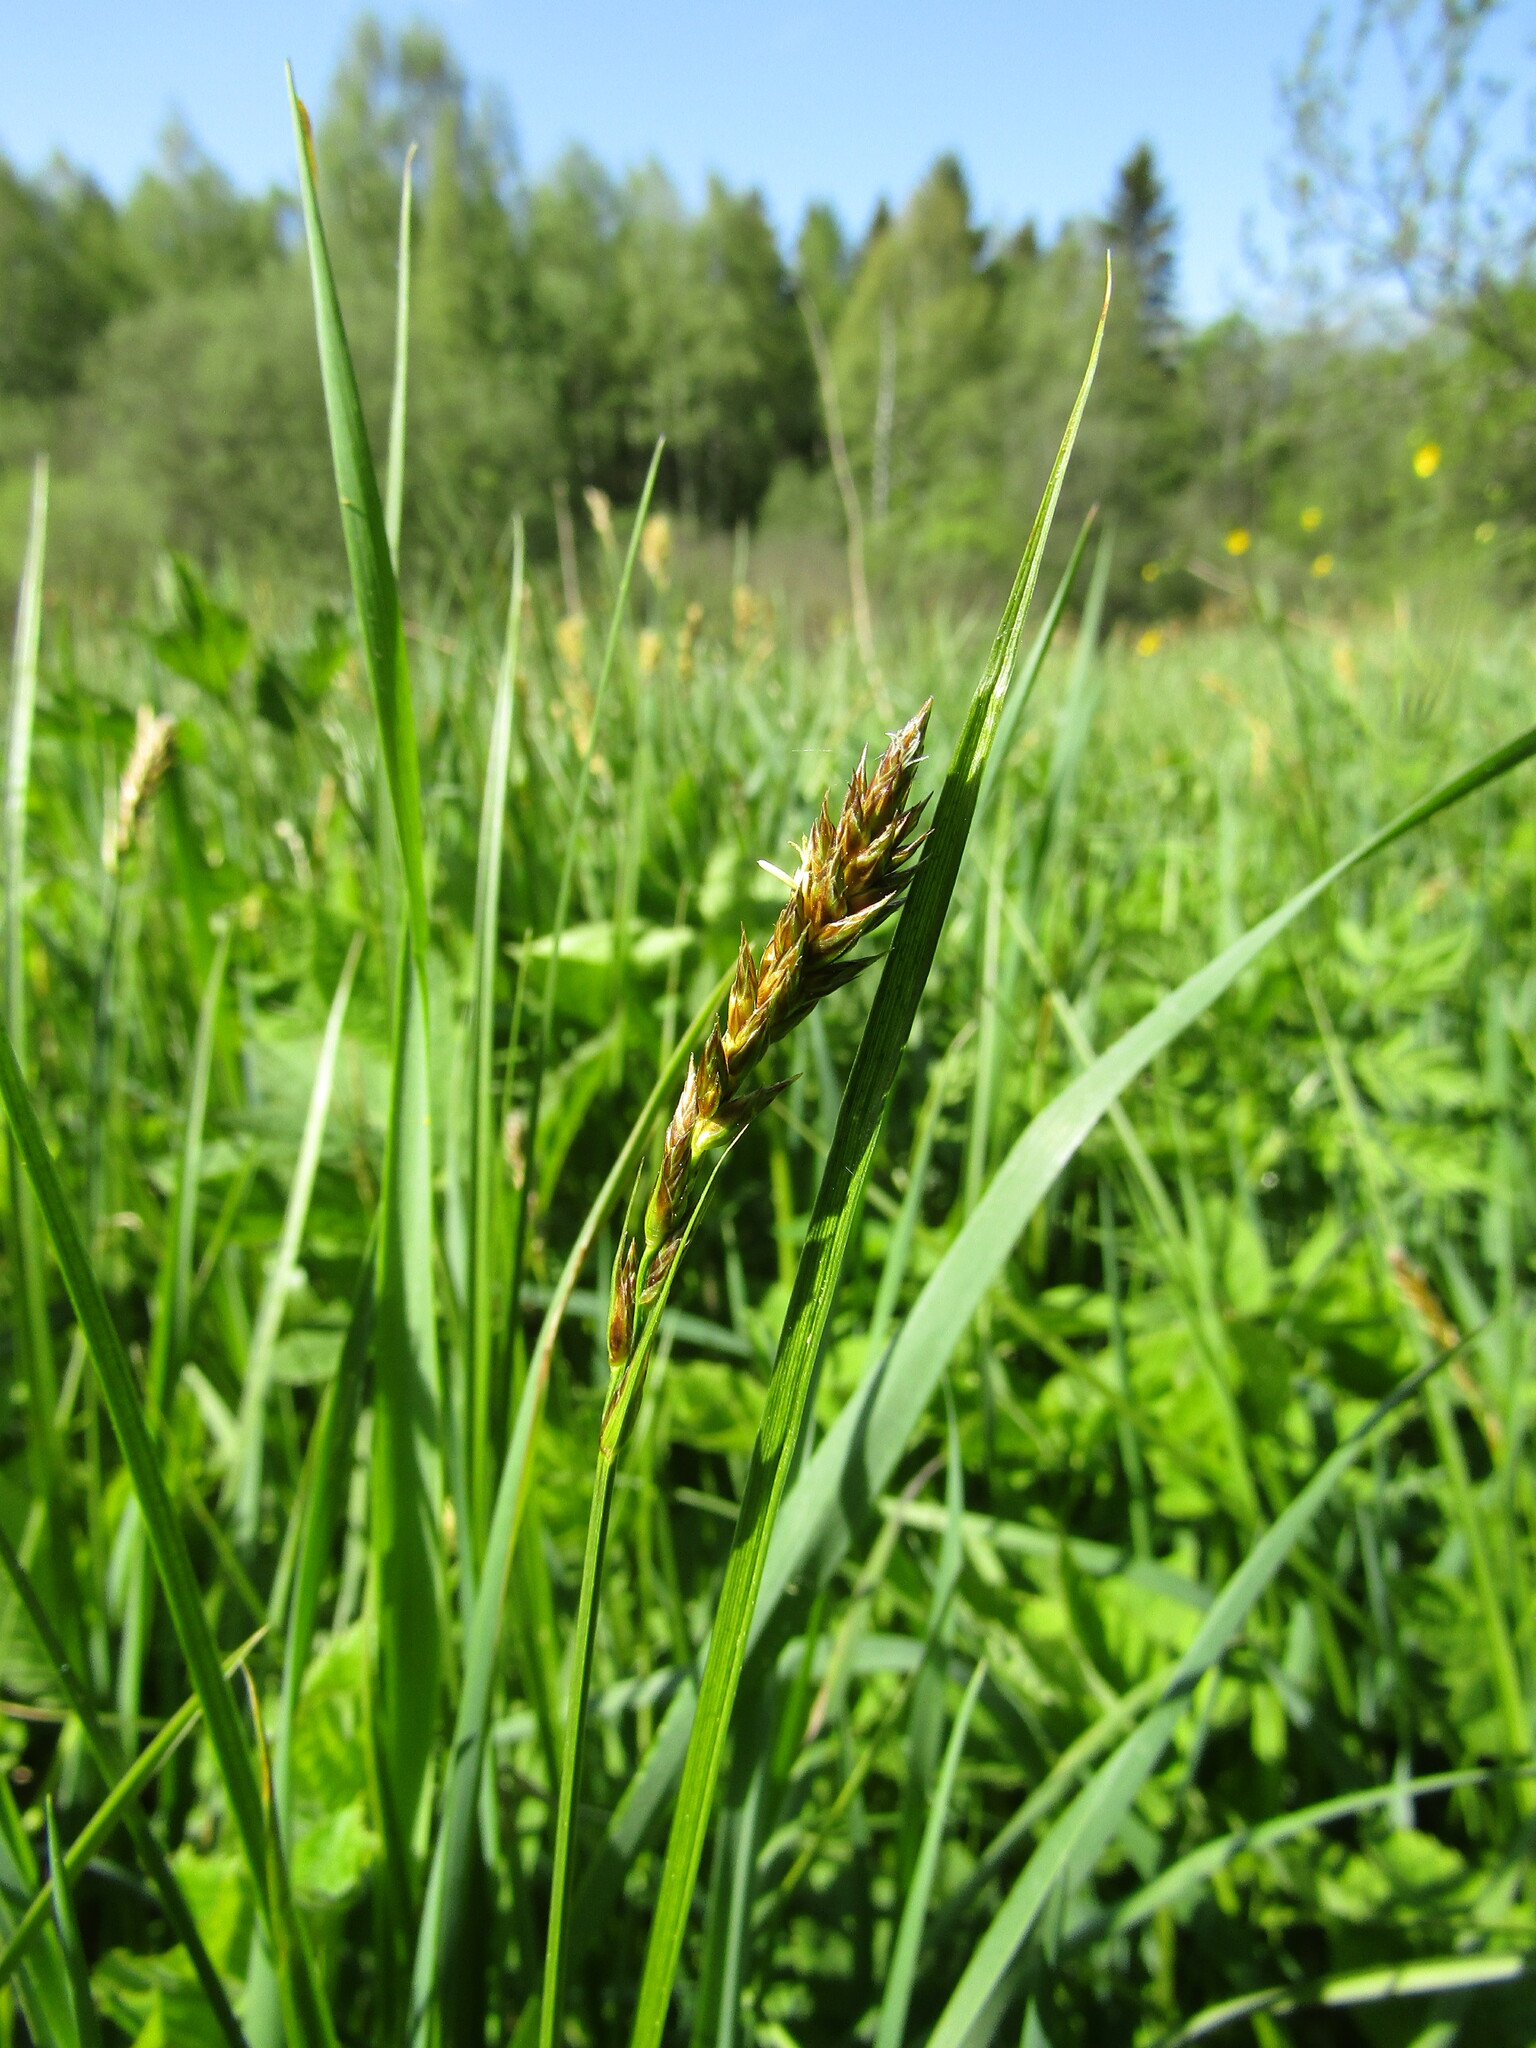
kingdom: Plantae
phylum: Tracheophyta
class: Liliopsida
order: Poales
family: Cyperaceae
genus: Carex
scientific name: Carex disticha
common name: Brown sedge
